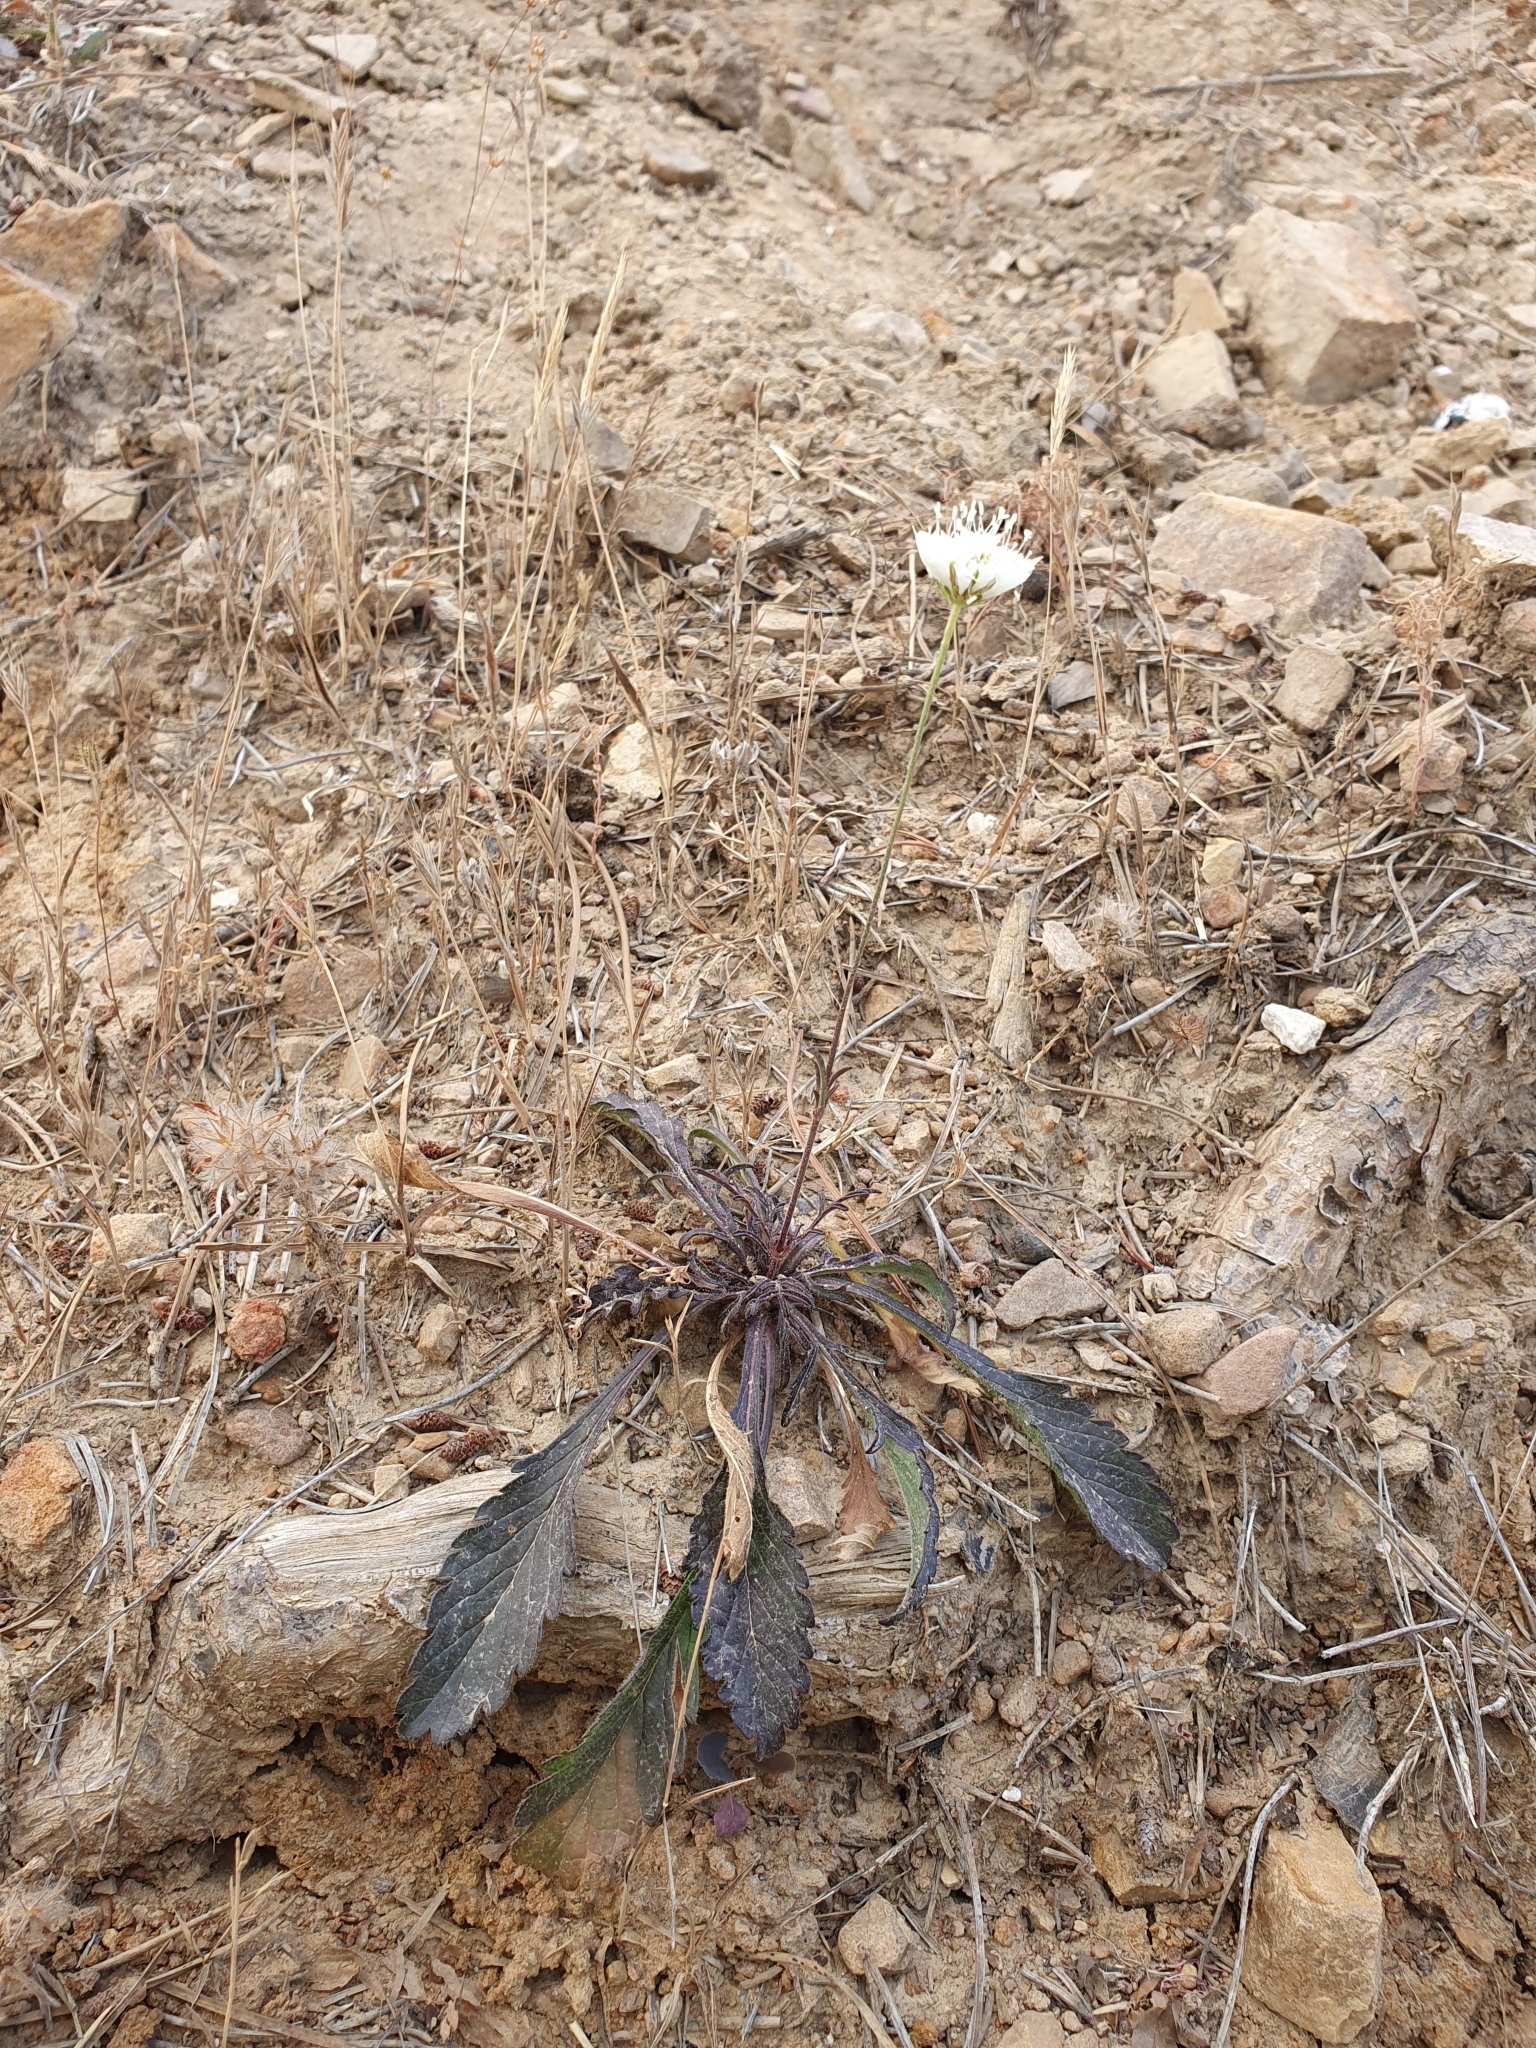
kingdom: Plantae
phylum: Tracheophyta
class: Magnoliopsida
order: Dipsacales
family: Caprifoliaceae
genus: Sixalix
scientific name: Sixalix atropurpurea
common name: Sweet scabious
